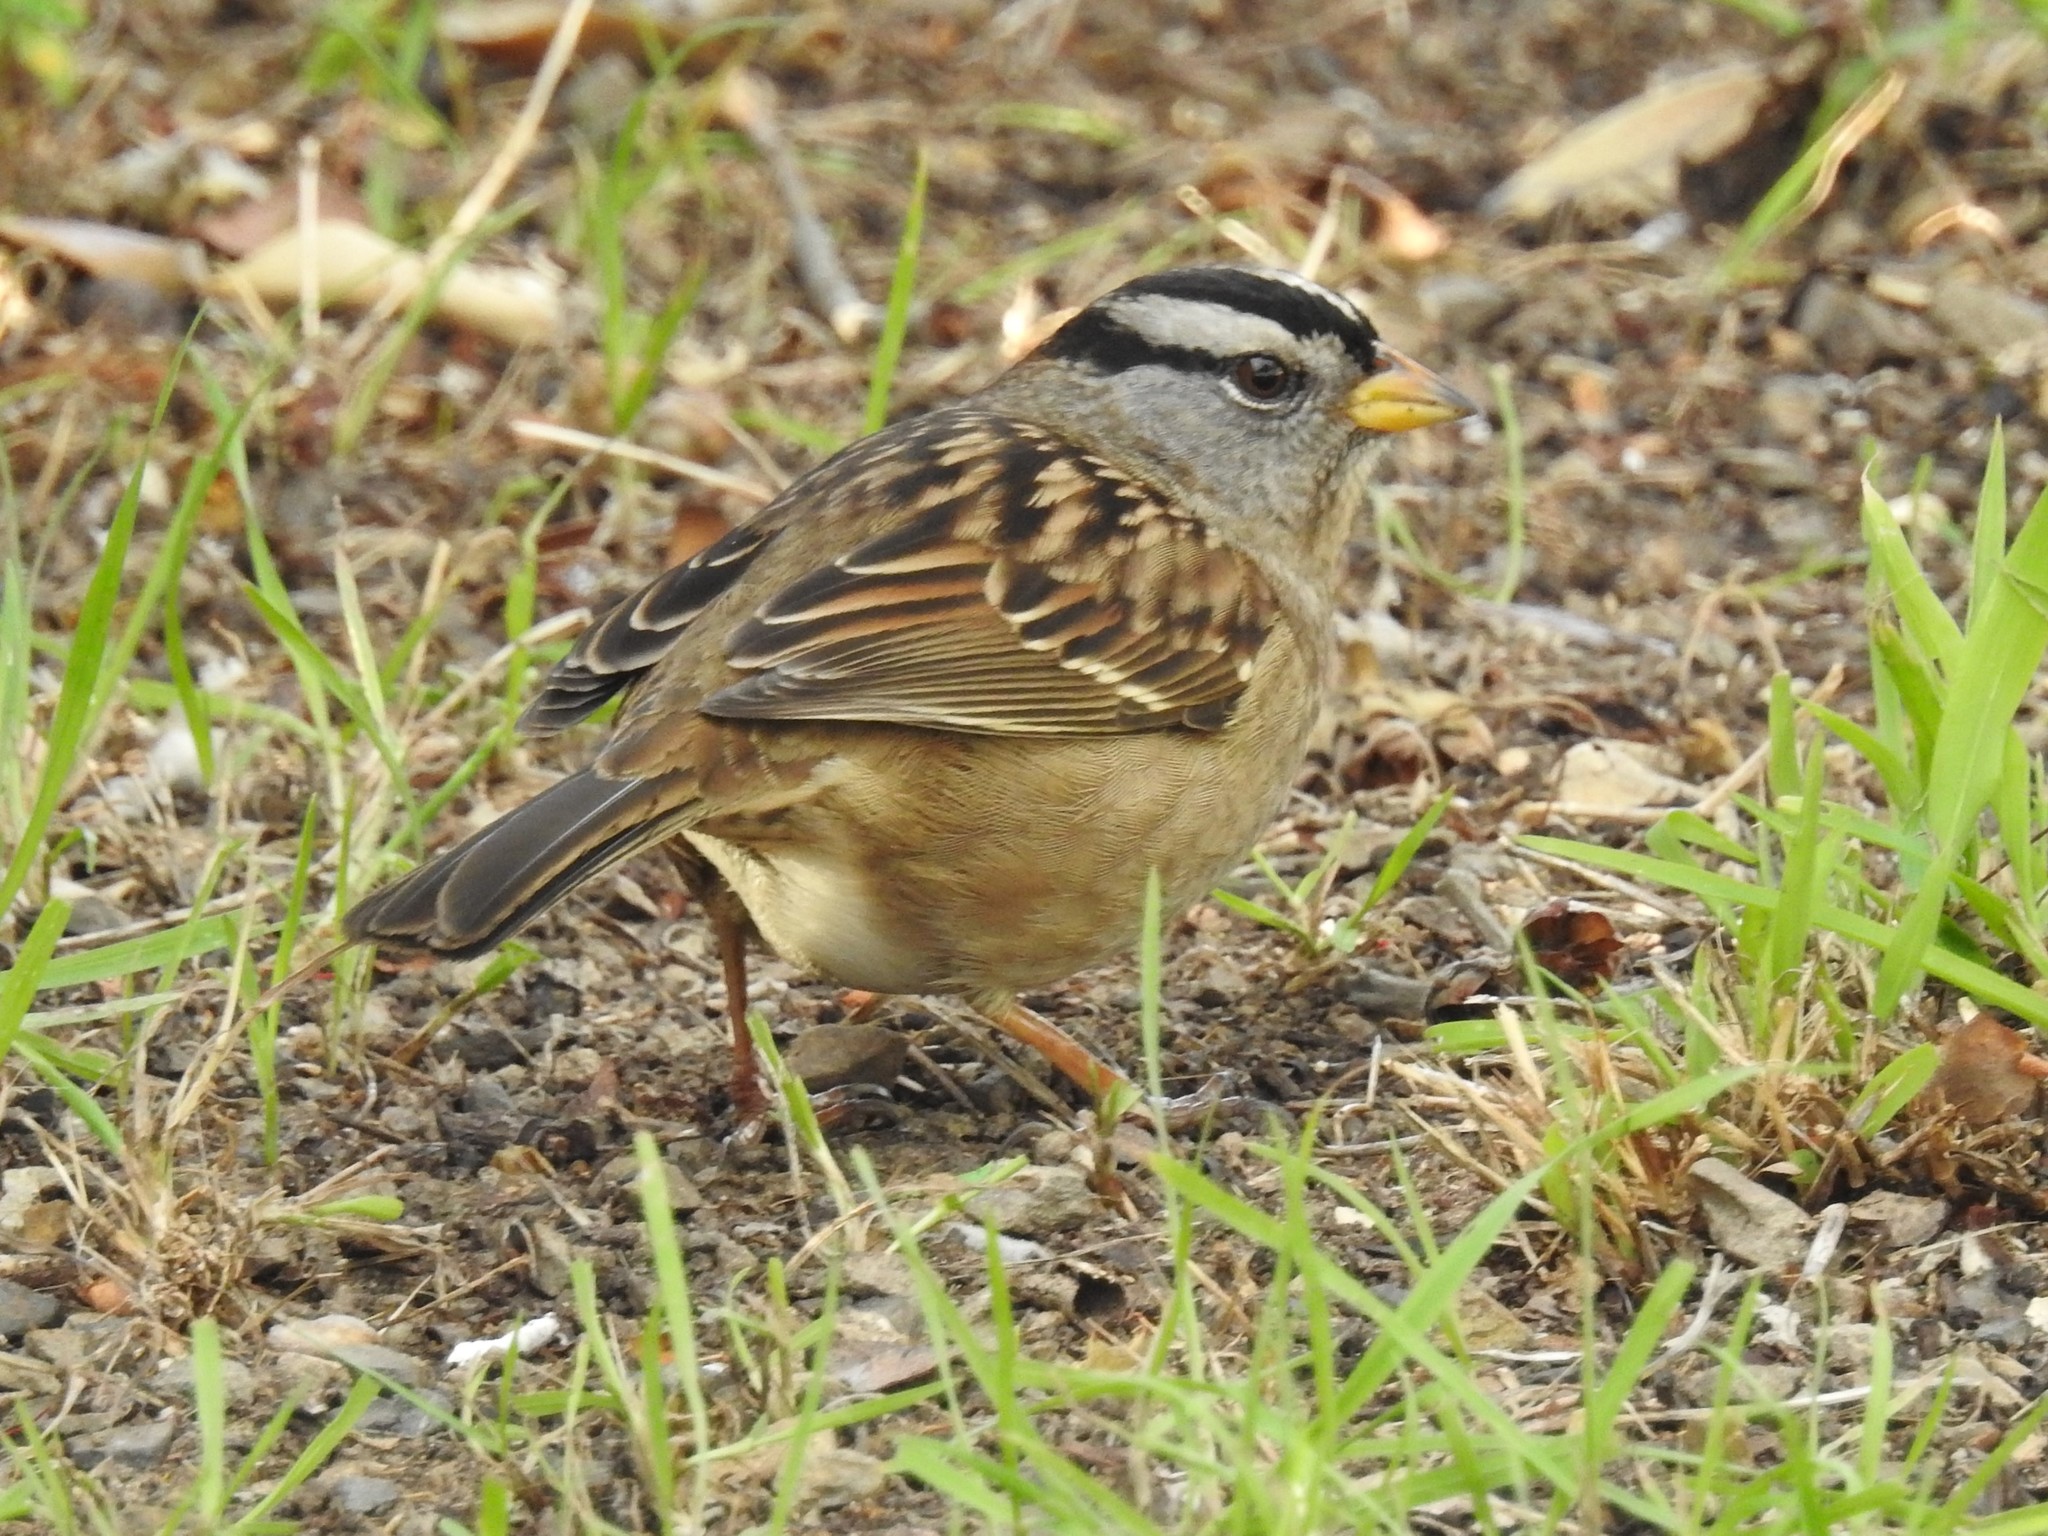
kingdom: Animalia
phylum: Chordata
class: Aves
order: Passeriformes
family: Passerellidae
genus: Zonotrichia
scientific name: Zonotrichia leucophrys
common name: White-crowned sparrow
